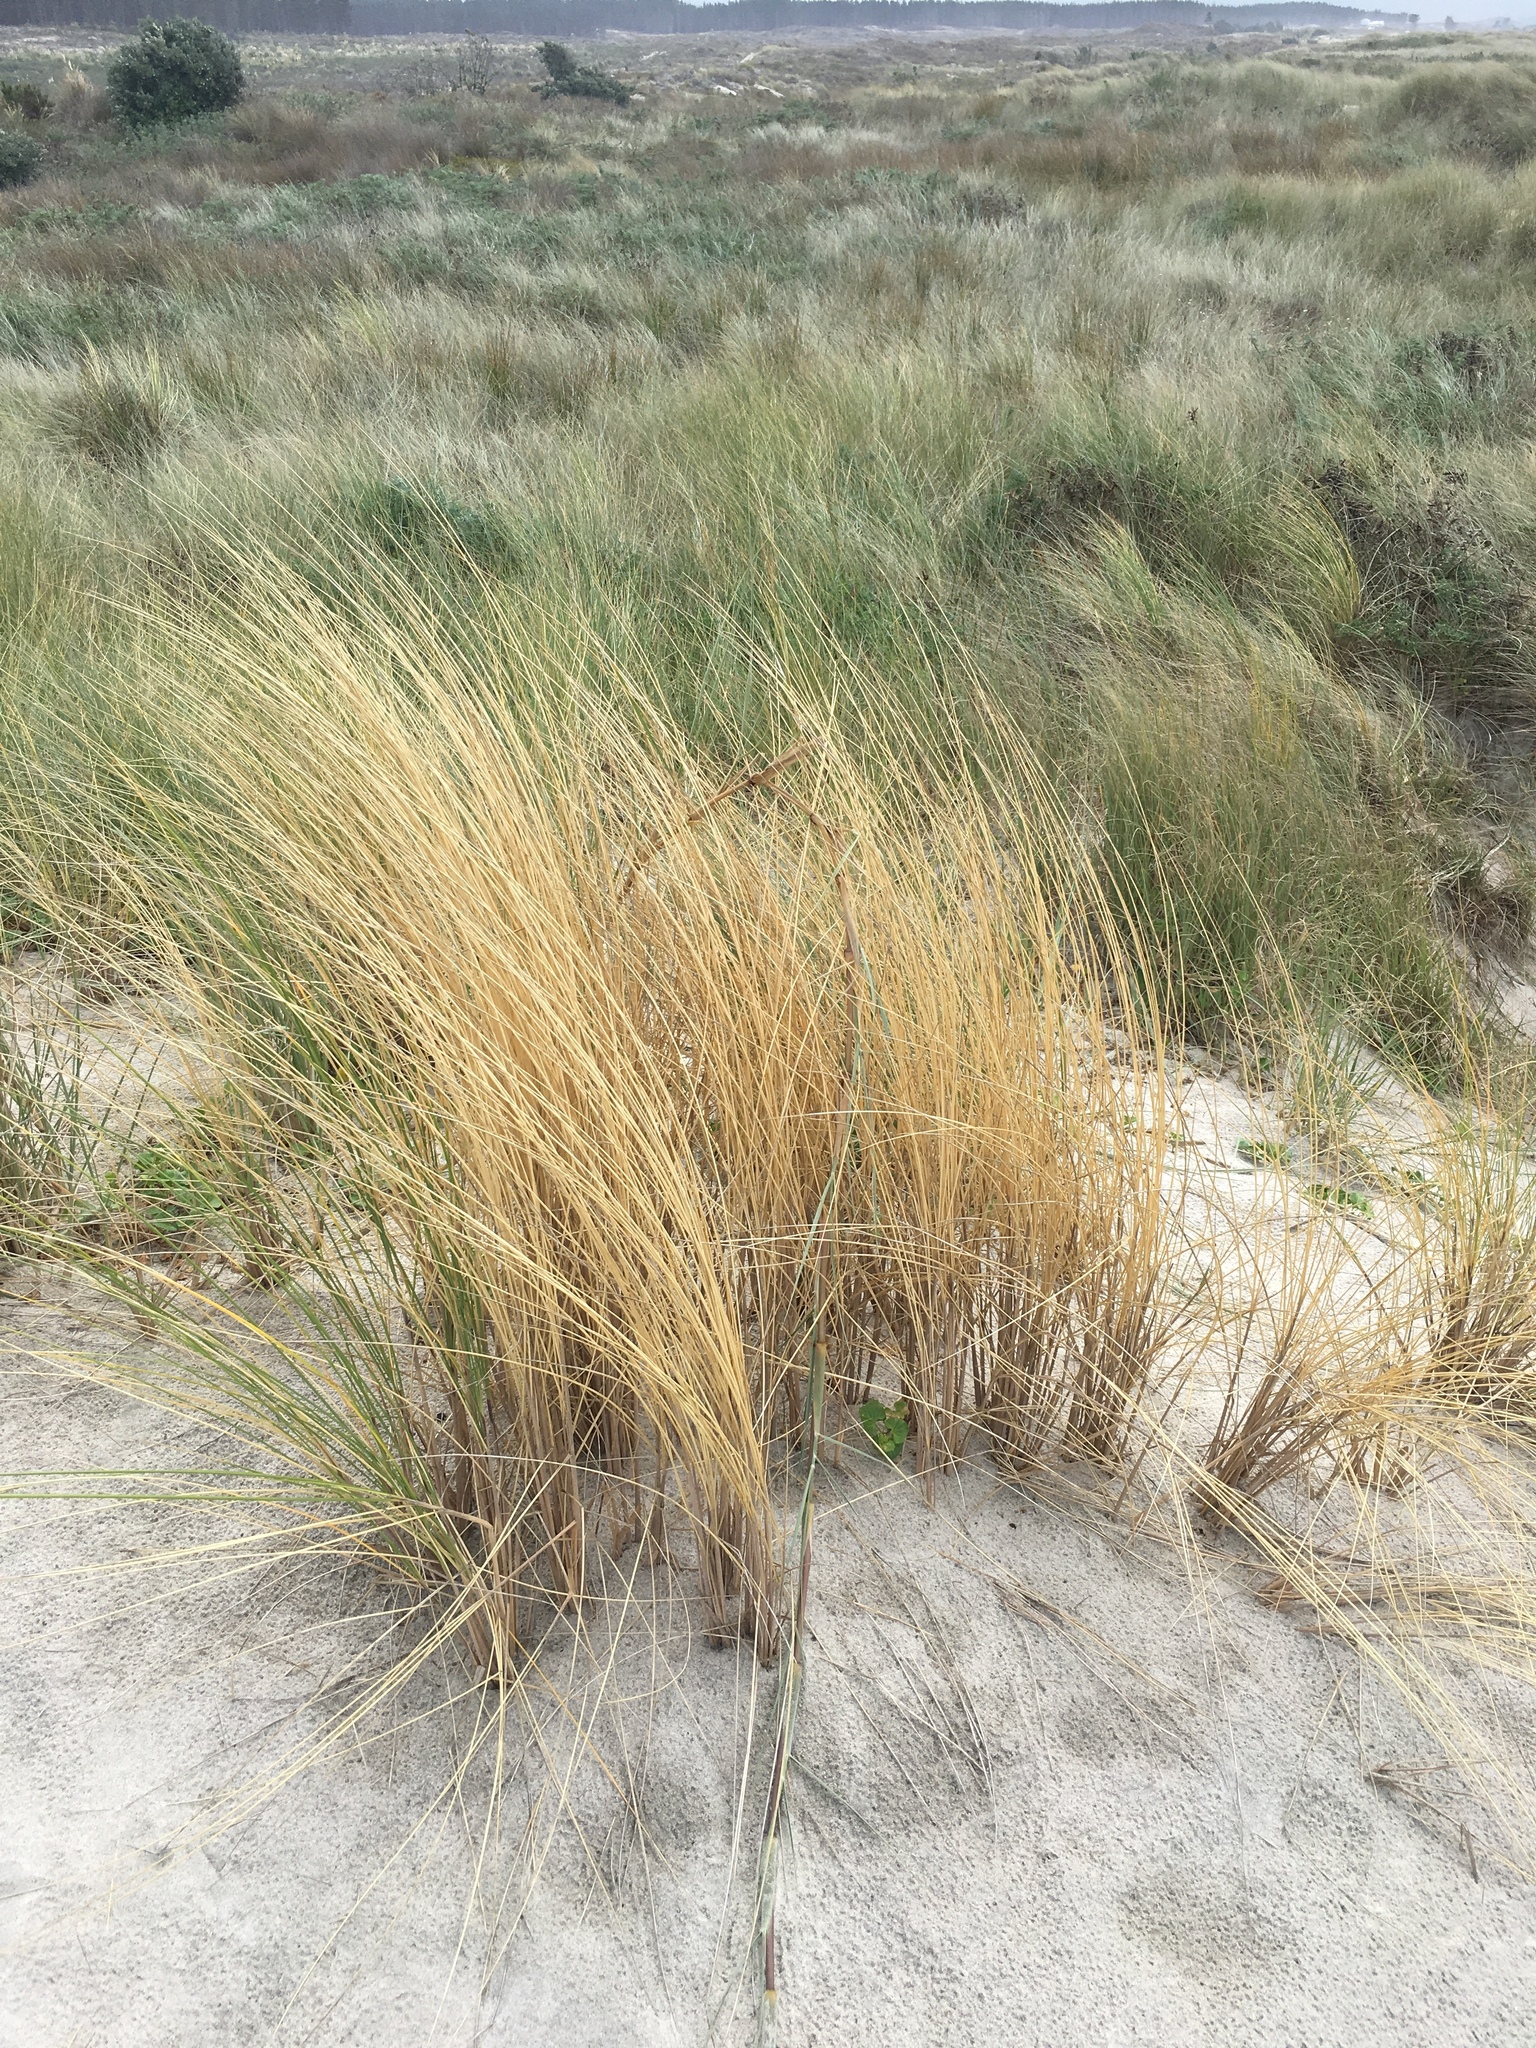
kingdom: Plantae
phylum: Tracheophyta
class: Liliopsida
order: Poales
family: Poaceae
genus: Calamagrostis
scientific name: Calamagrostis arenaria
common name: European beachgrass
